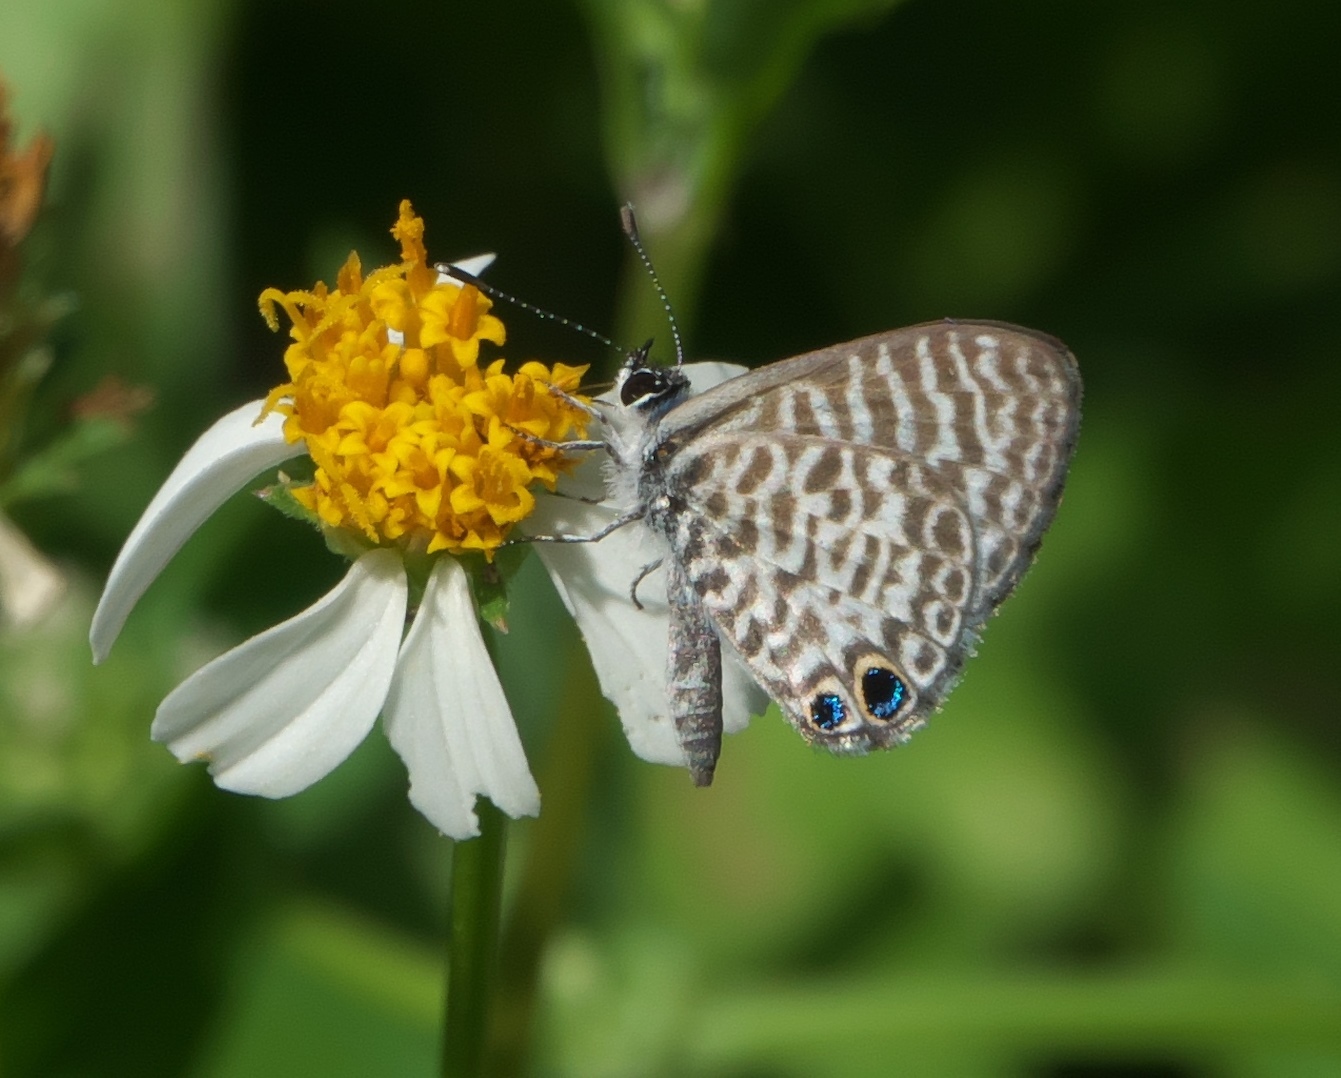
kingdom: Animalia
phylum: Arthropoda
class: Insecta
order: Lepidoptera
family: Lycaenidae
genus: Leptotes
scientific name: Leptotes cassius
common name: Cassius blue
